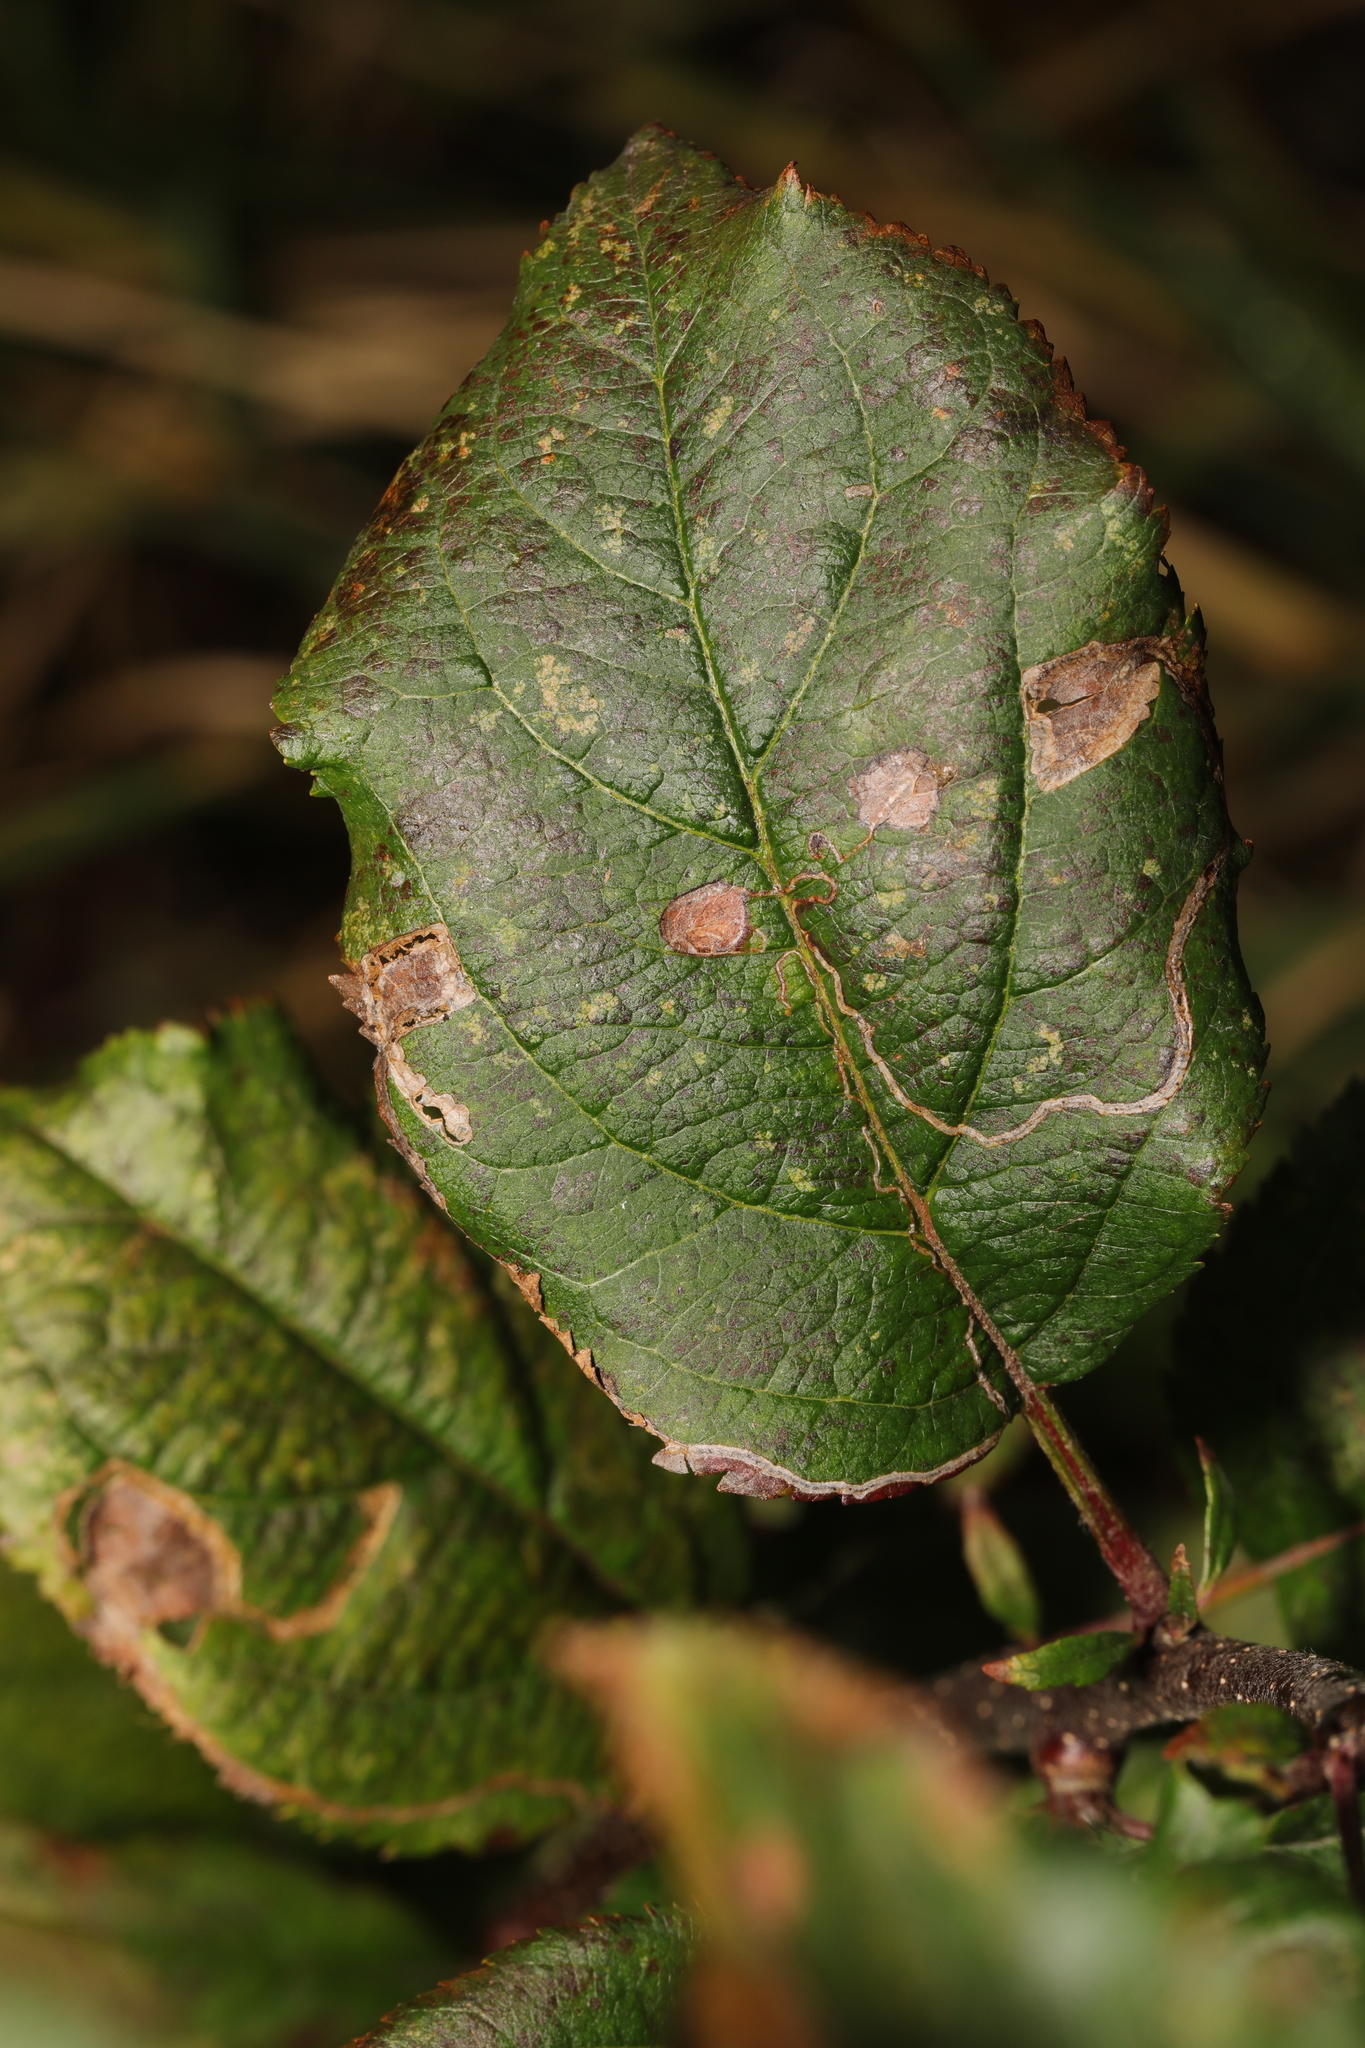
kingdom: Animalia
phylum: Arthropoda
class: Insecta
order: Lepidoptera
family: Lyonetiidae
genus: Lyonetia
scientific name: Lyonetia clerkella
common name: Apple leaf miner
